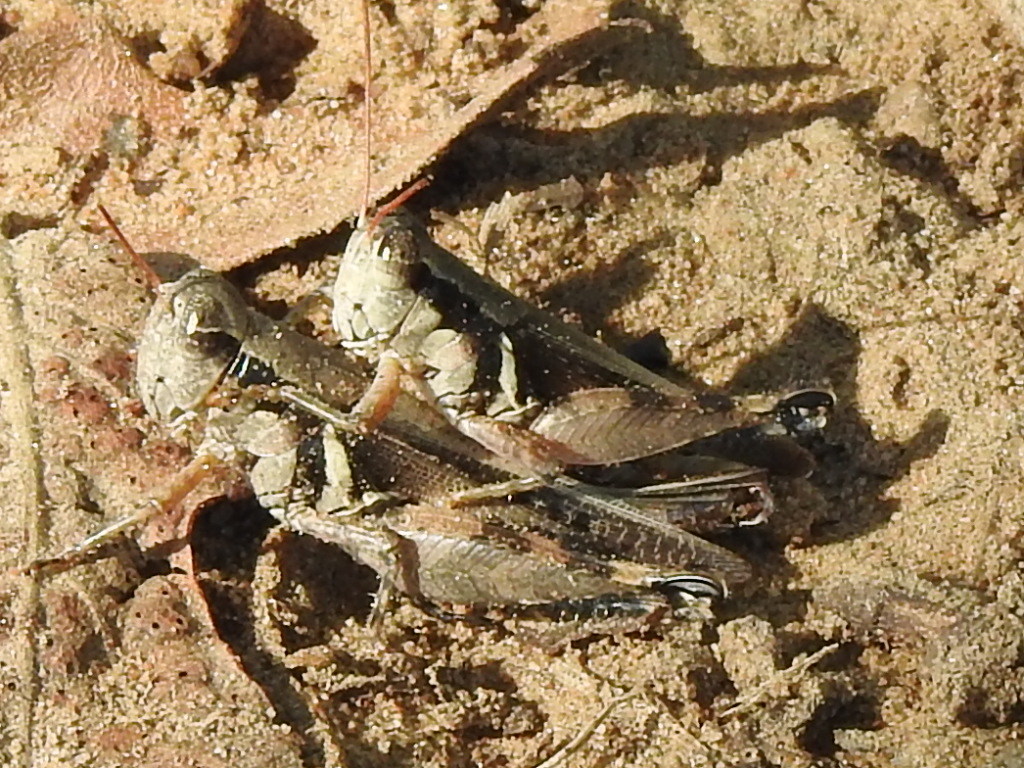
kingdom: Animalia
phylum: Arthropoda
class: Insecta
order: Orthoptera
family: Acrididae
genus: Melanoplus
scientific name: Melanoplus glaucipes
